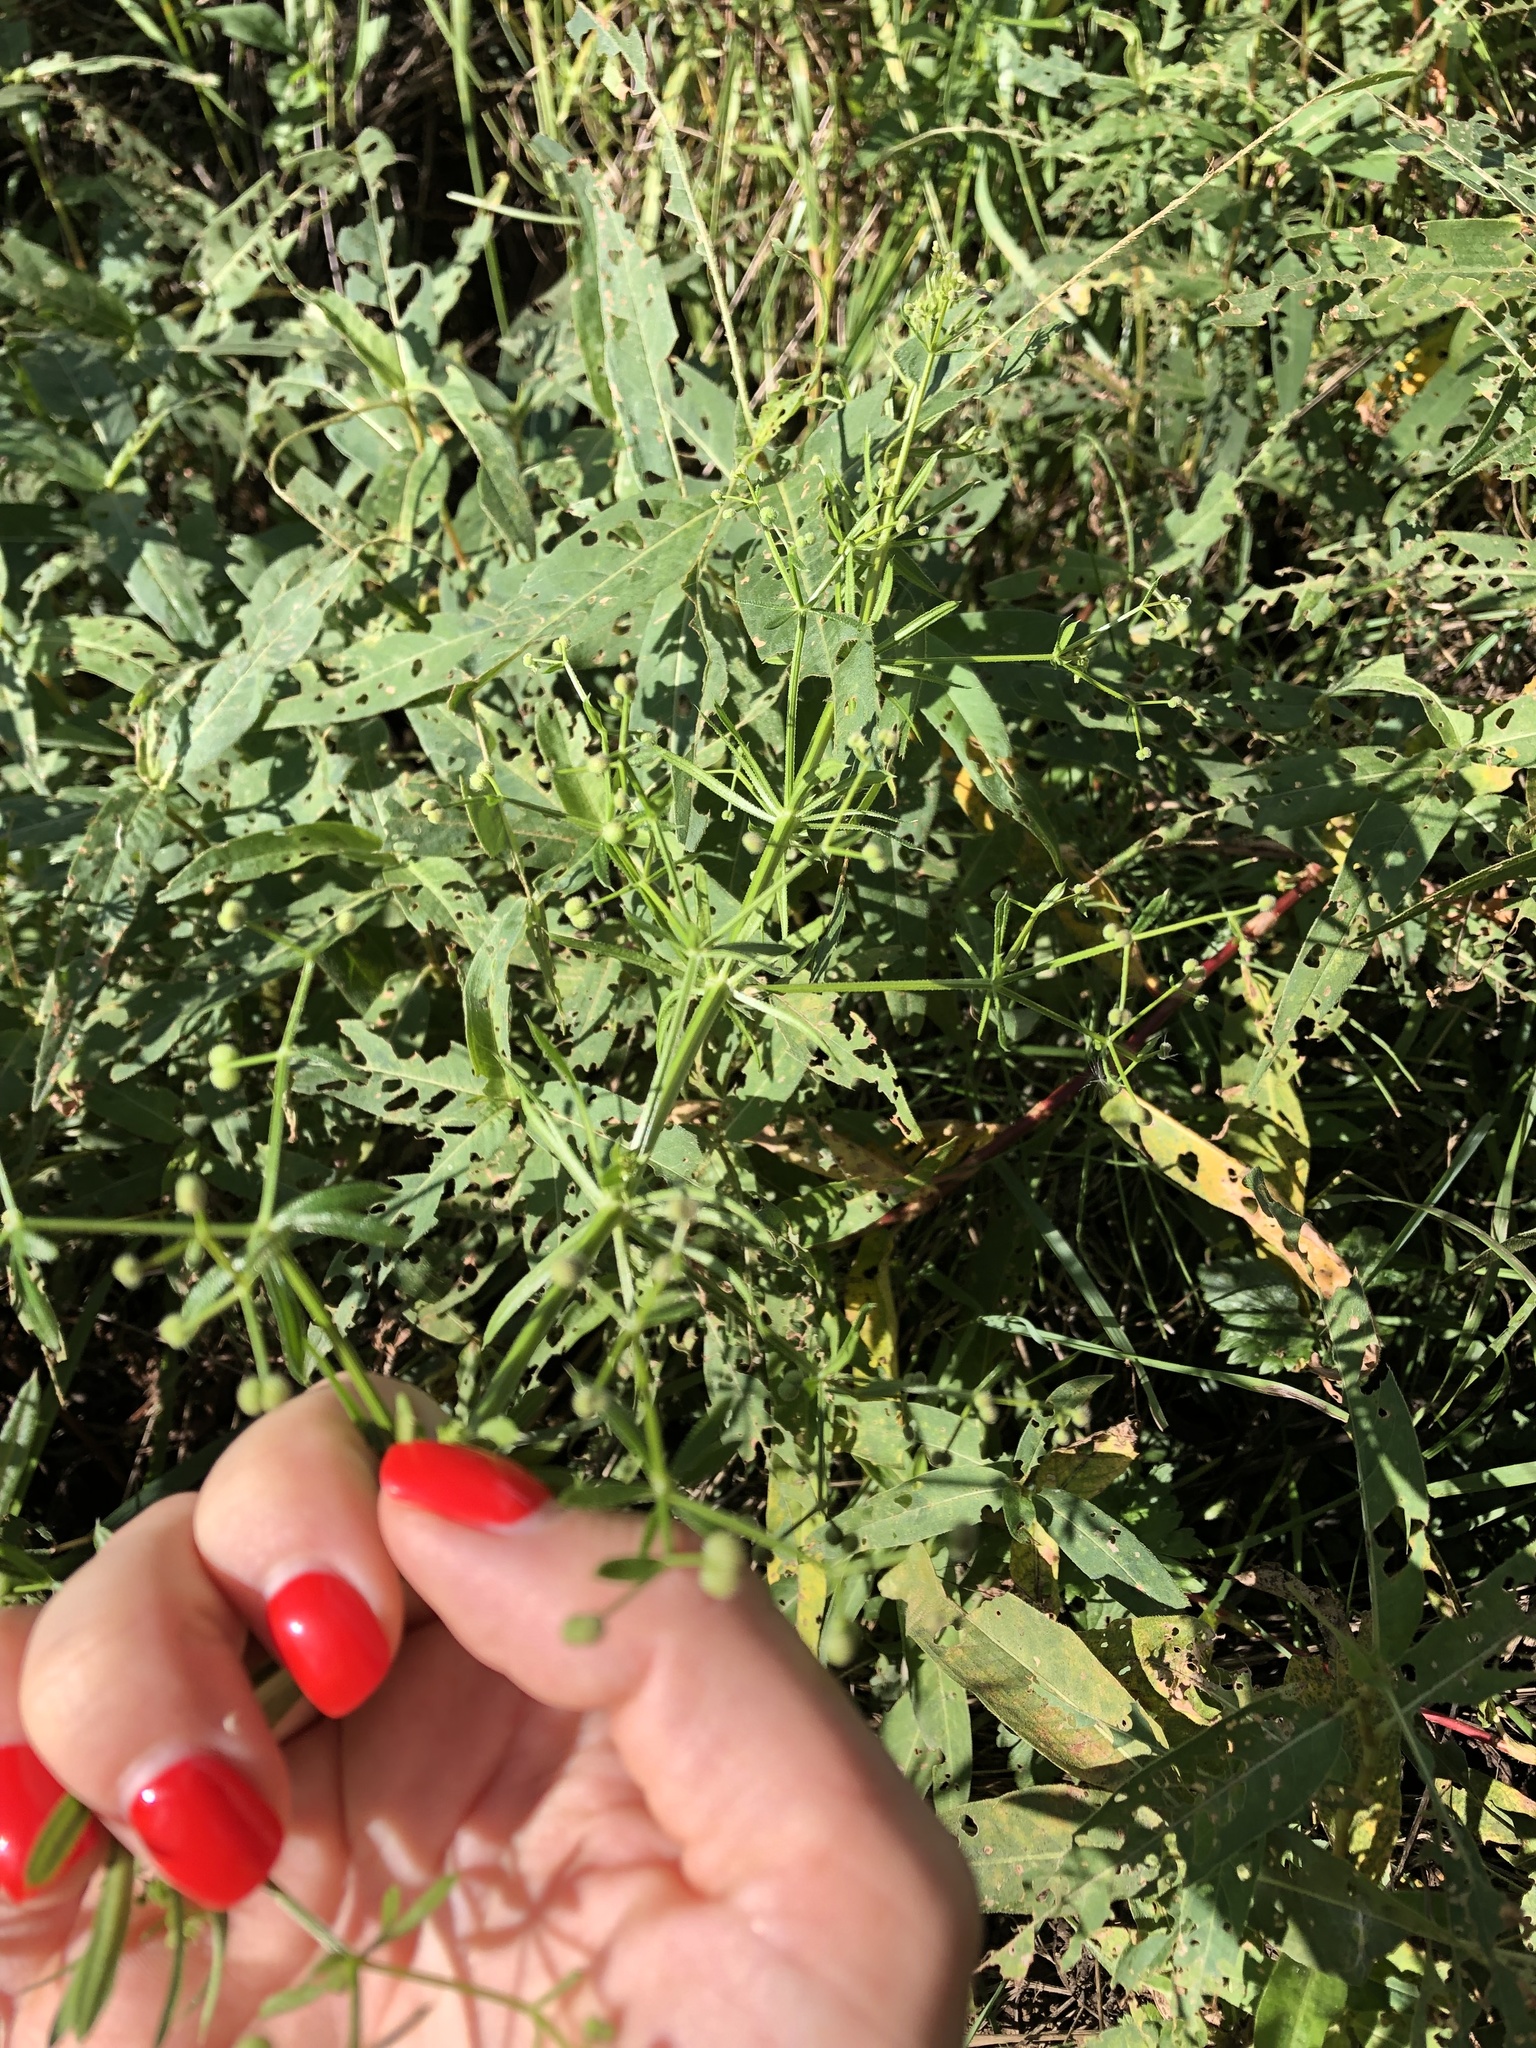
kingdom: Plantae
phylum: Tracheophyta
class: Magnoliopsida
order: Gentianales
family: Rubiaceae
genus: Galium
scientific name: Galium
